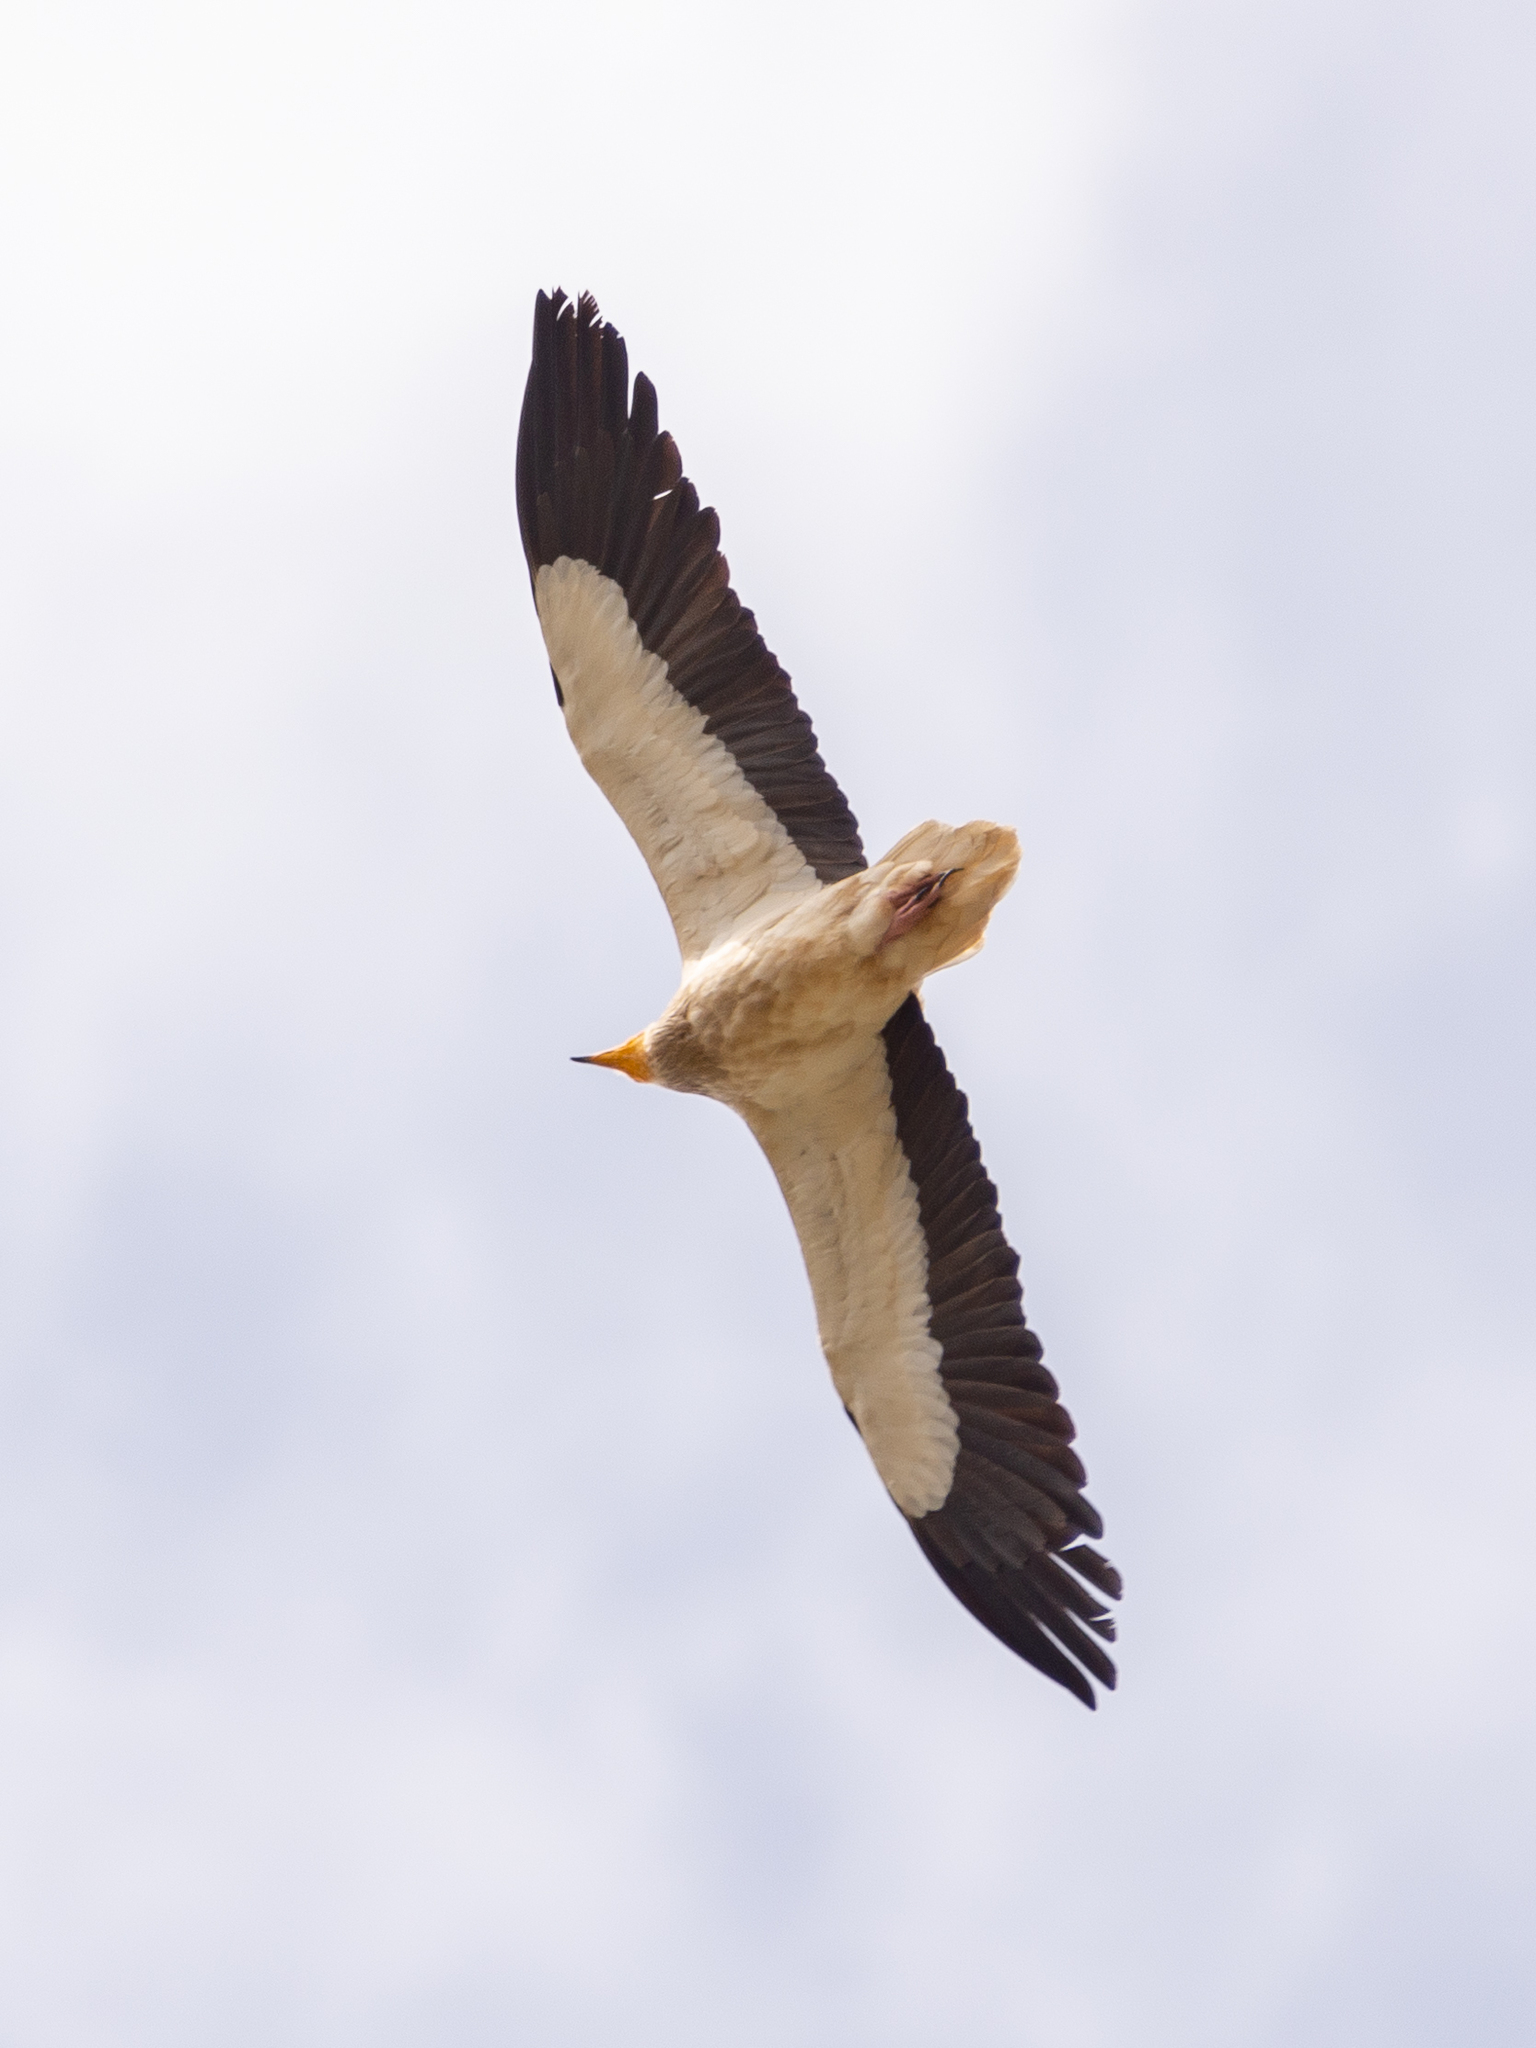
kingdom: Animalia
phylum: Chordata
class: Aves
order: Accipitriformes
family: Accipitridae
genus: Neophron
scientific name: Neophron percnopterus
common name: Egyptian vulture
